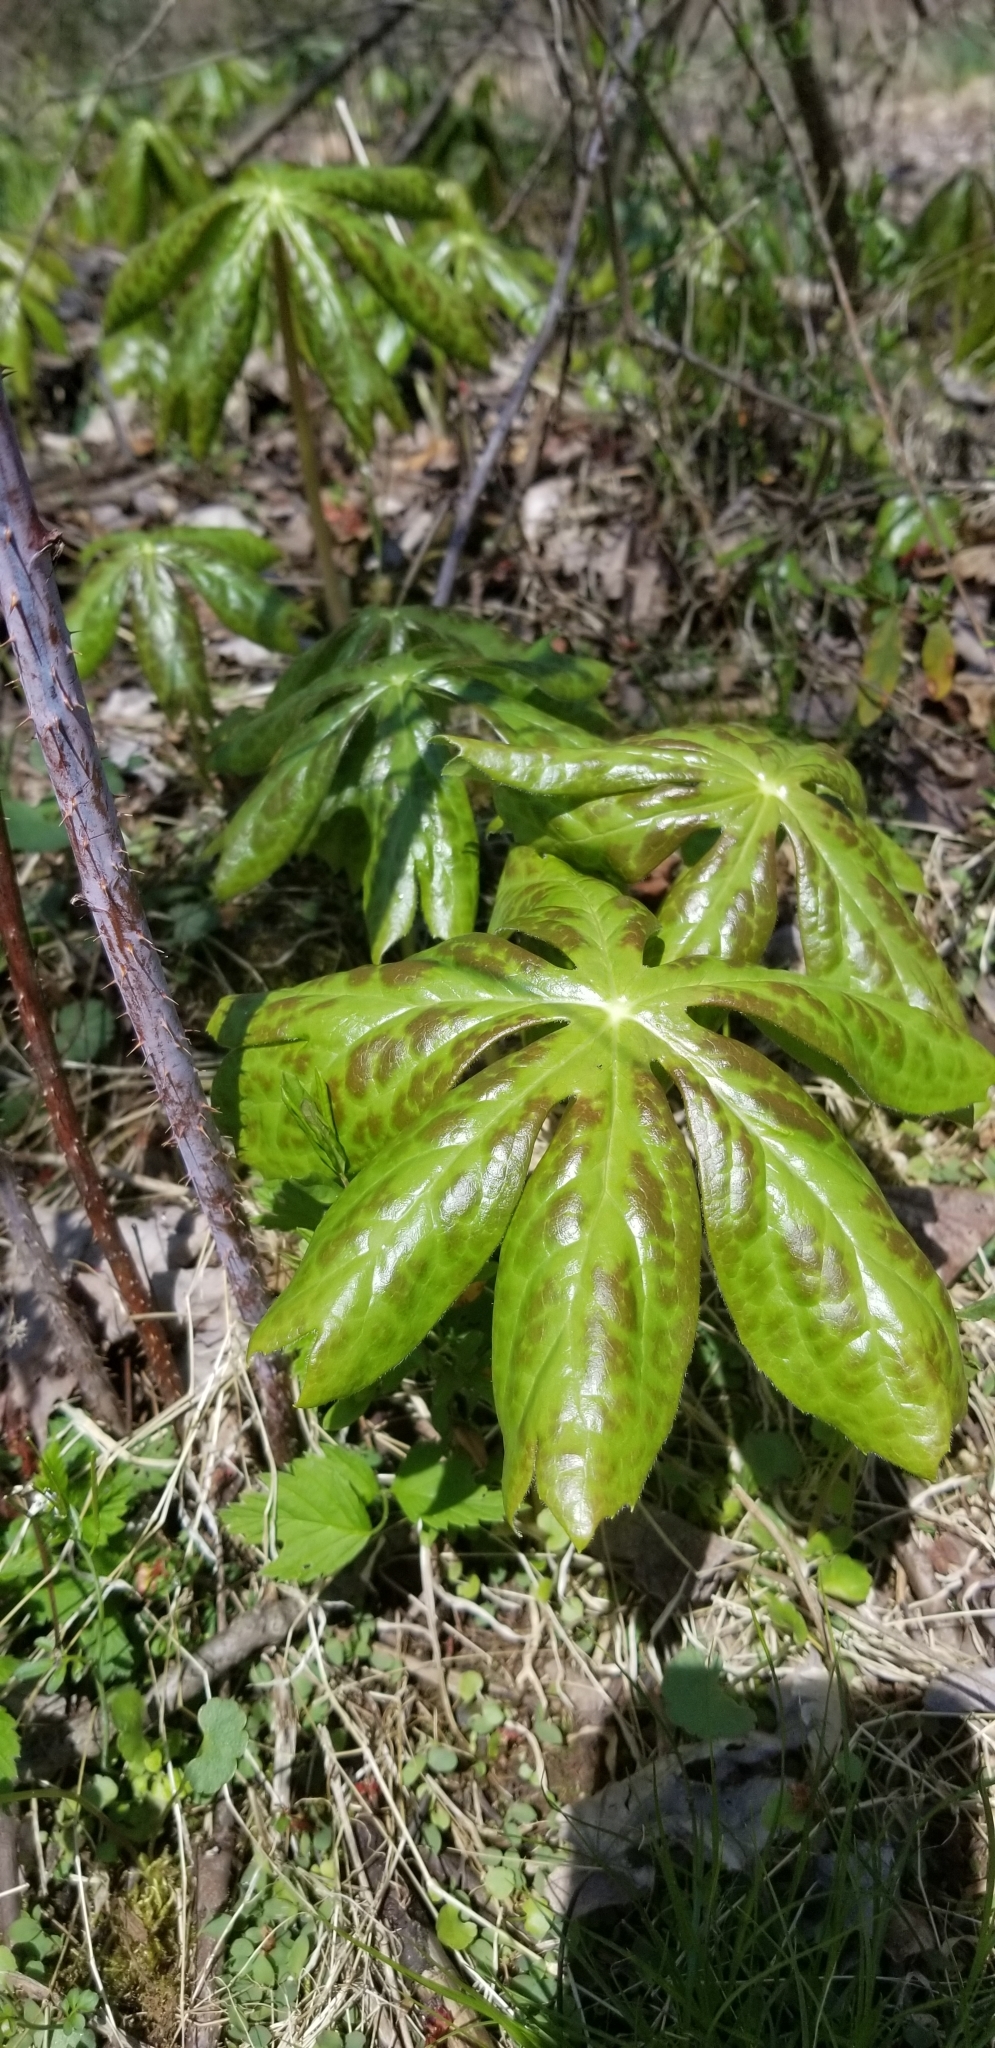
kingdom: Plantae
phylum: Tracheophyta
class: Magnoliopsida
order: Ranunculales
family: Berberidaceae
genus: Podophyllum
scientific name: Podophyllum peltatum
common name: Wild mandrake
